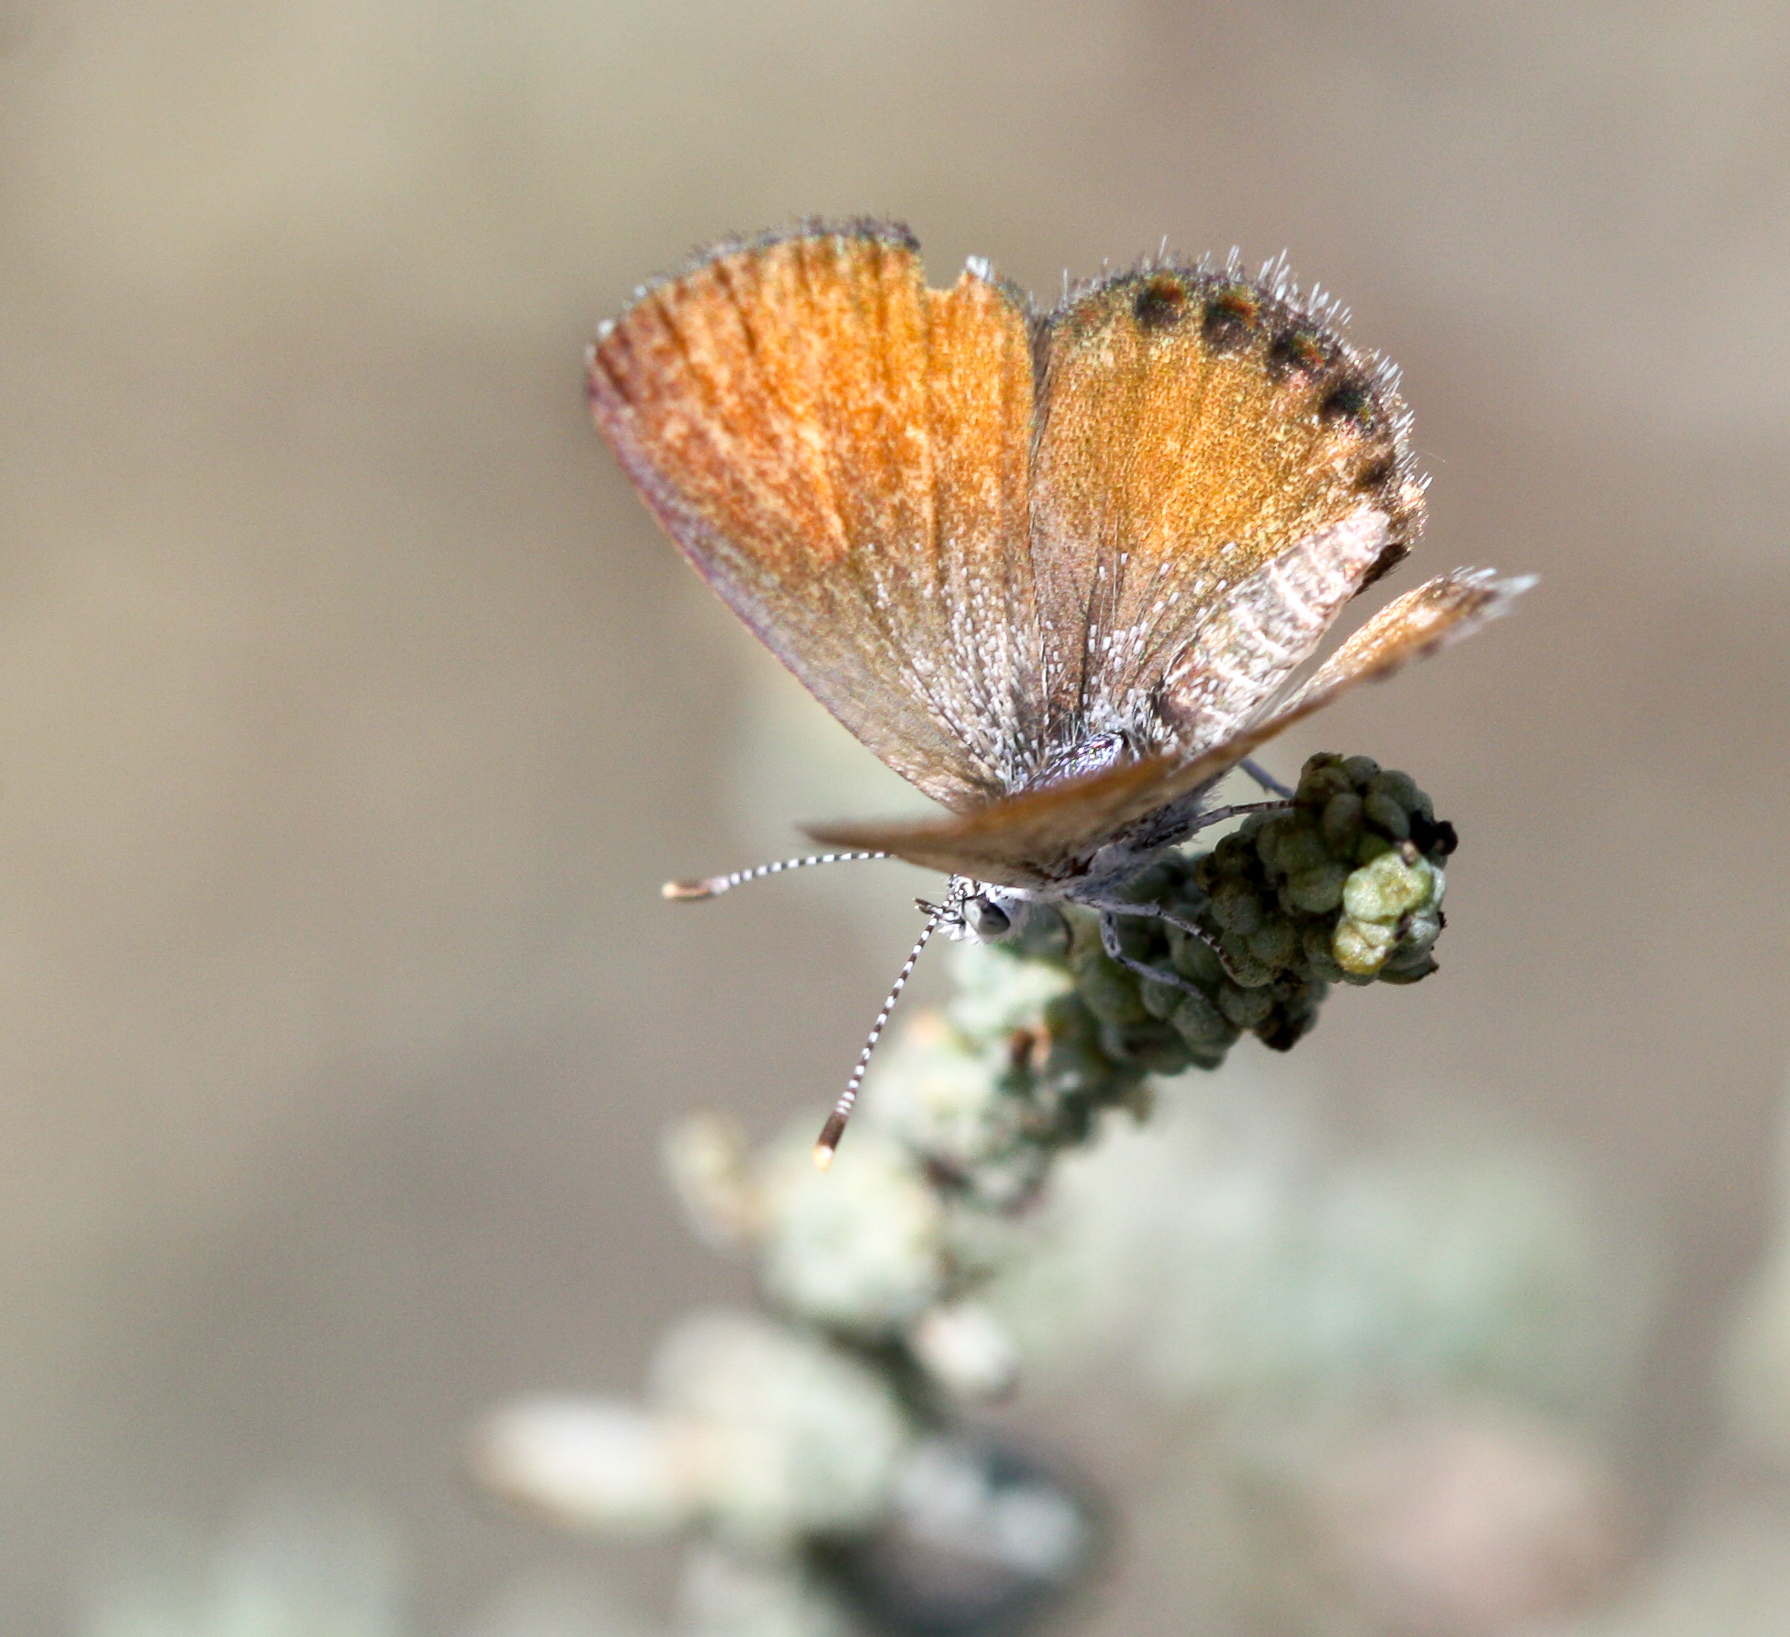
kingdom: Animalia
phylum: Arthropoda
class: Insecta
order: Lepidoptera
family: Lycaenidae
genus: Brephidium
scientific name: Brephidium exilis
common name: Pygmy blue
